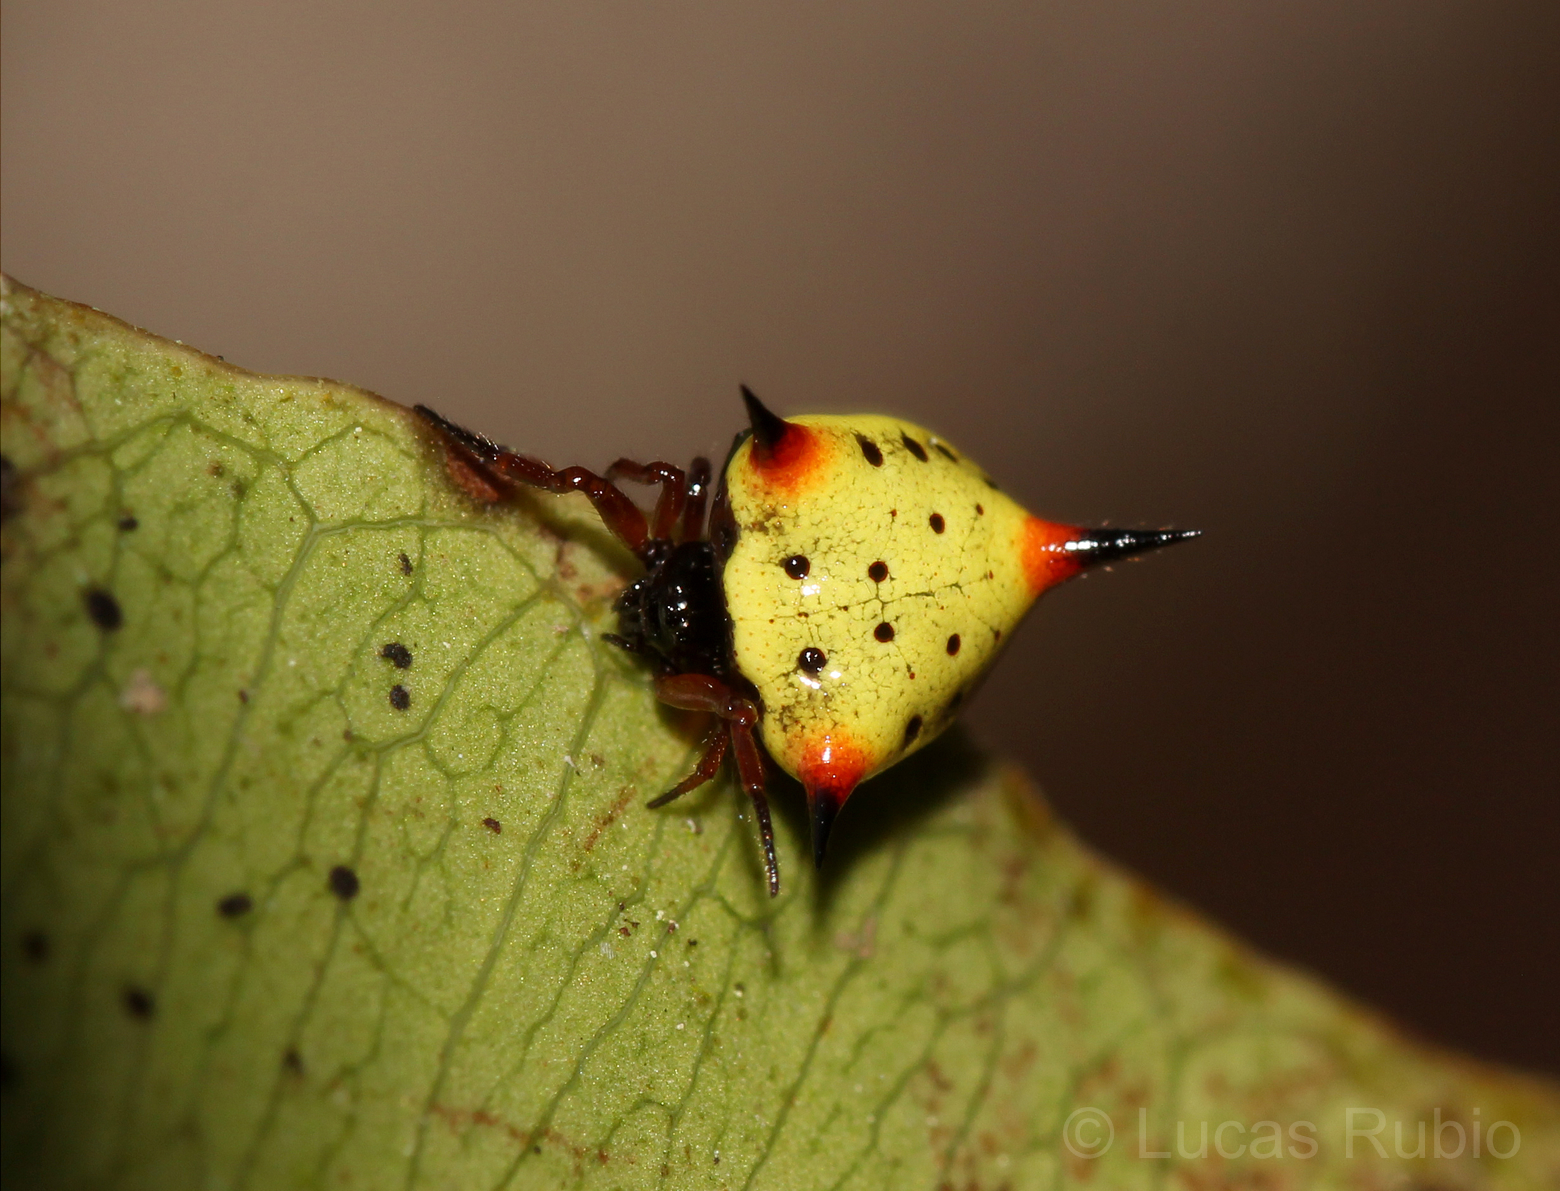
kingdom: Animalia
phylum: Arthropoda
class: Arachnida
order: Araneae
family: Theridiidae
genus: Phoroncidia
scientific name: Phoroncidia reimoseri
